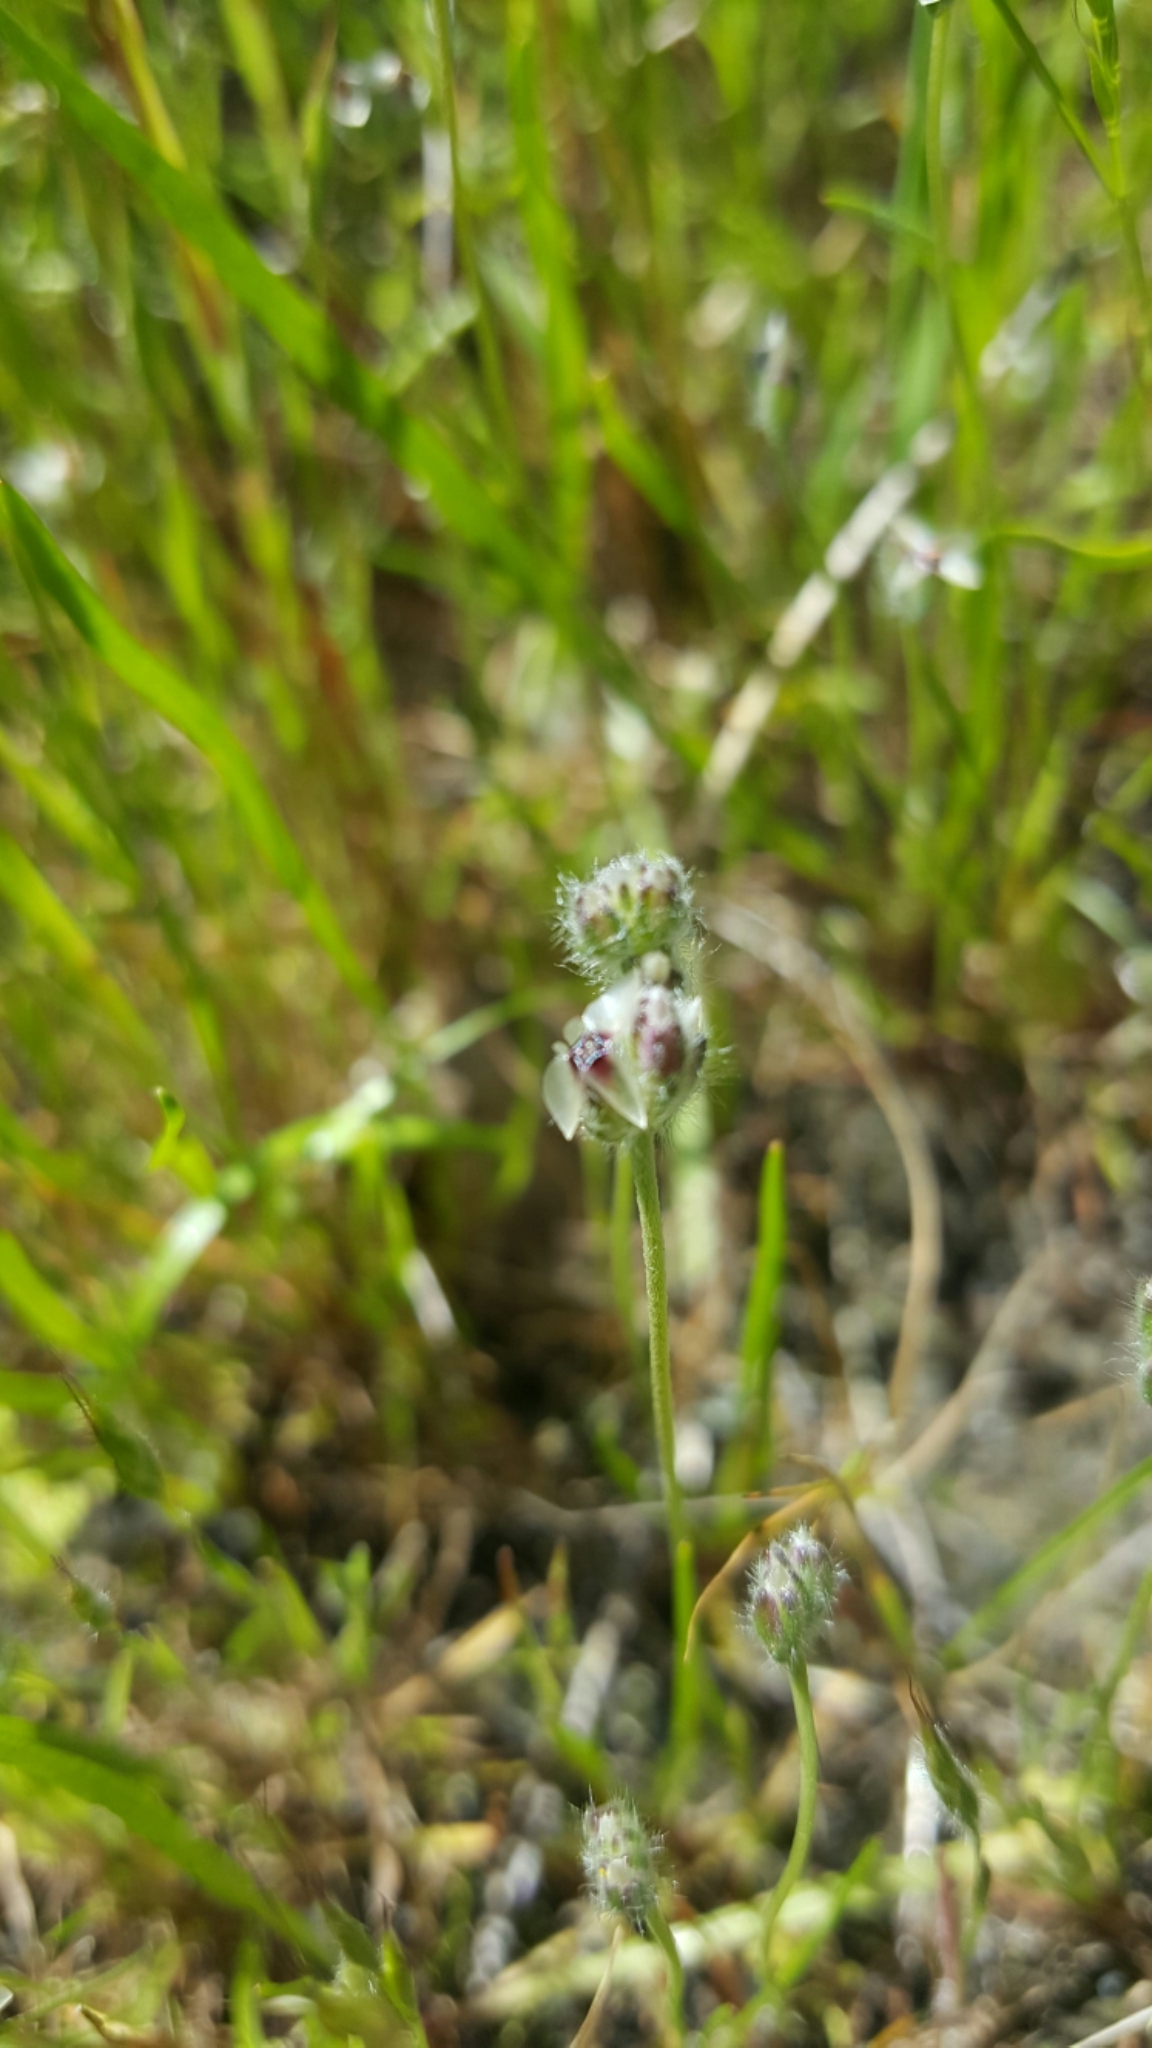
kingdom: Plantae
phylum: Tracheophyta
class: Magnoliopsida
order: Lamiales
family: Plantaginaceae
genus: Plantago
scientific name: Plantago erecta
